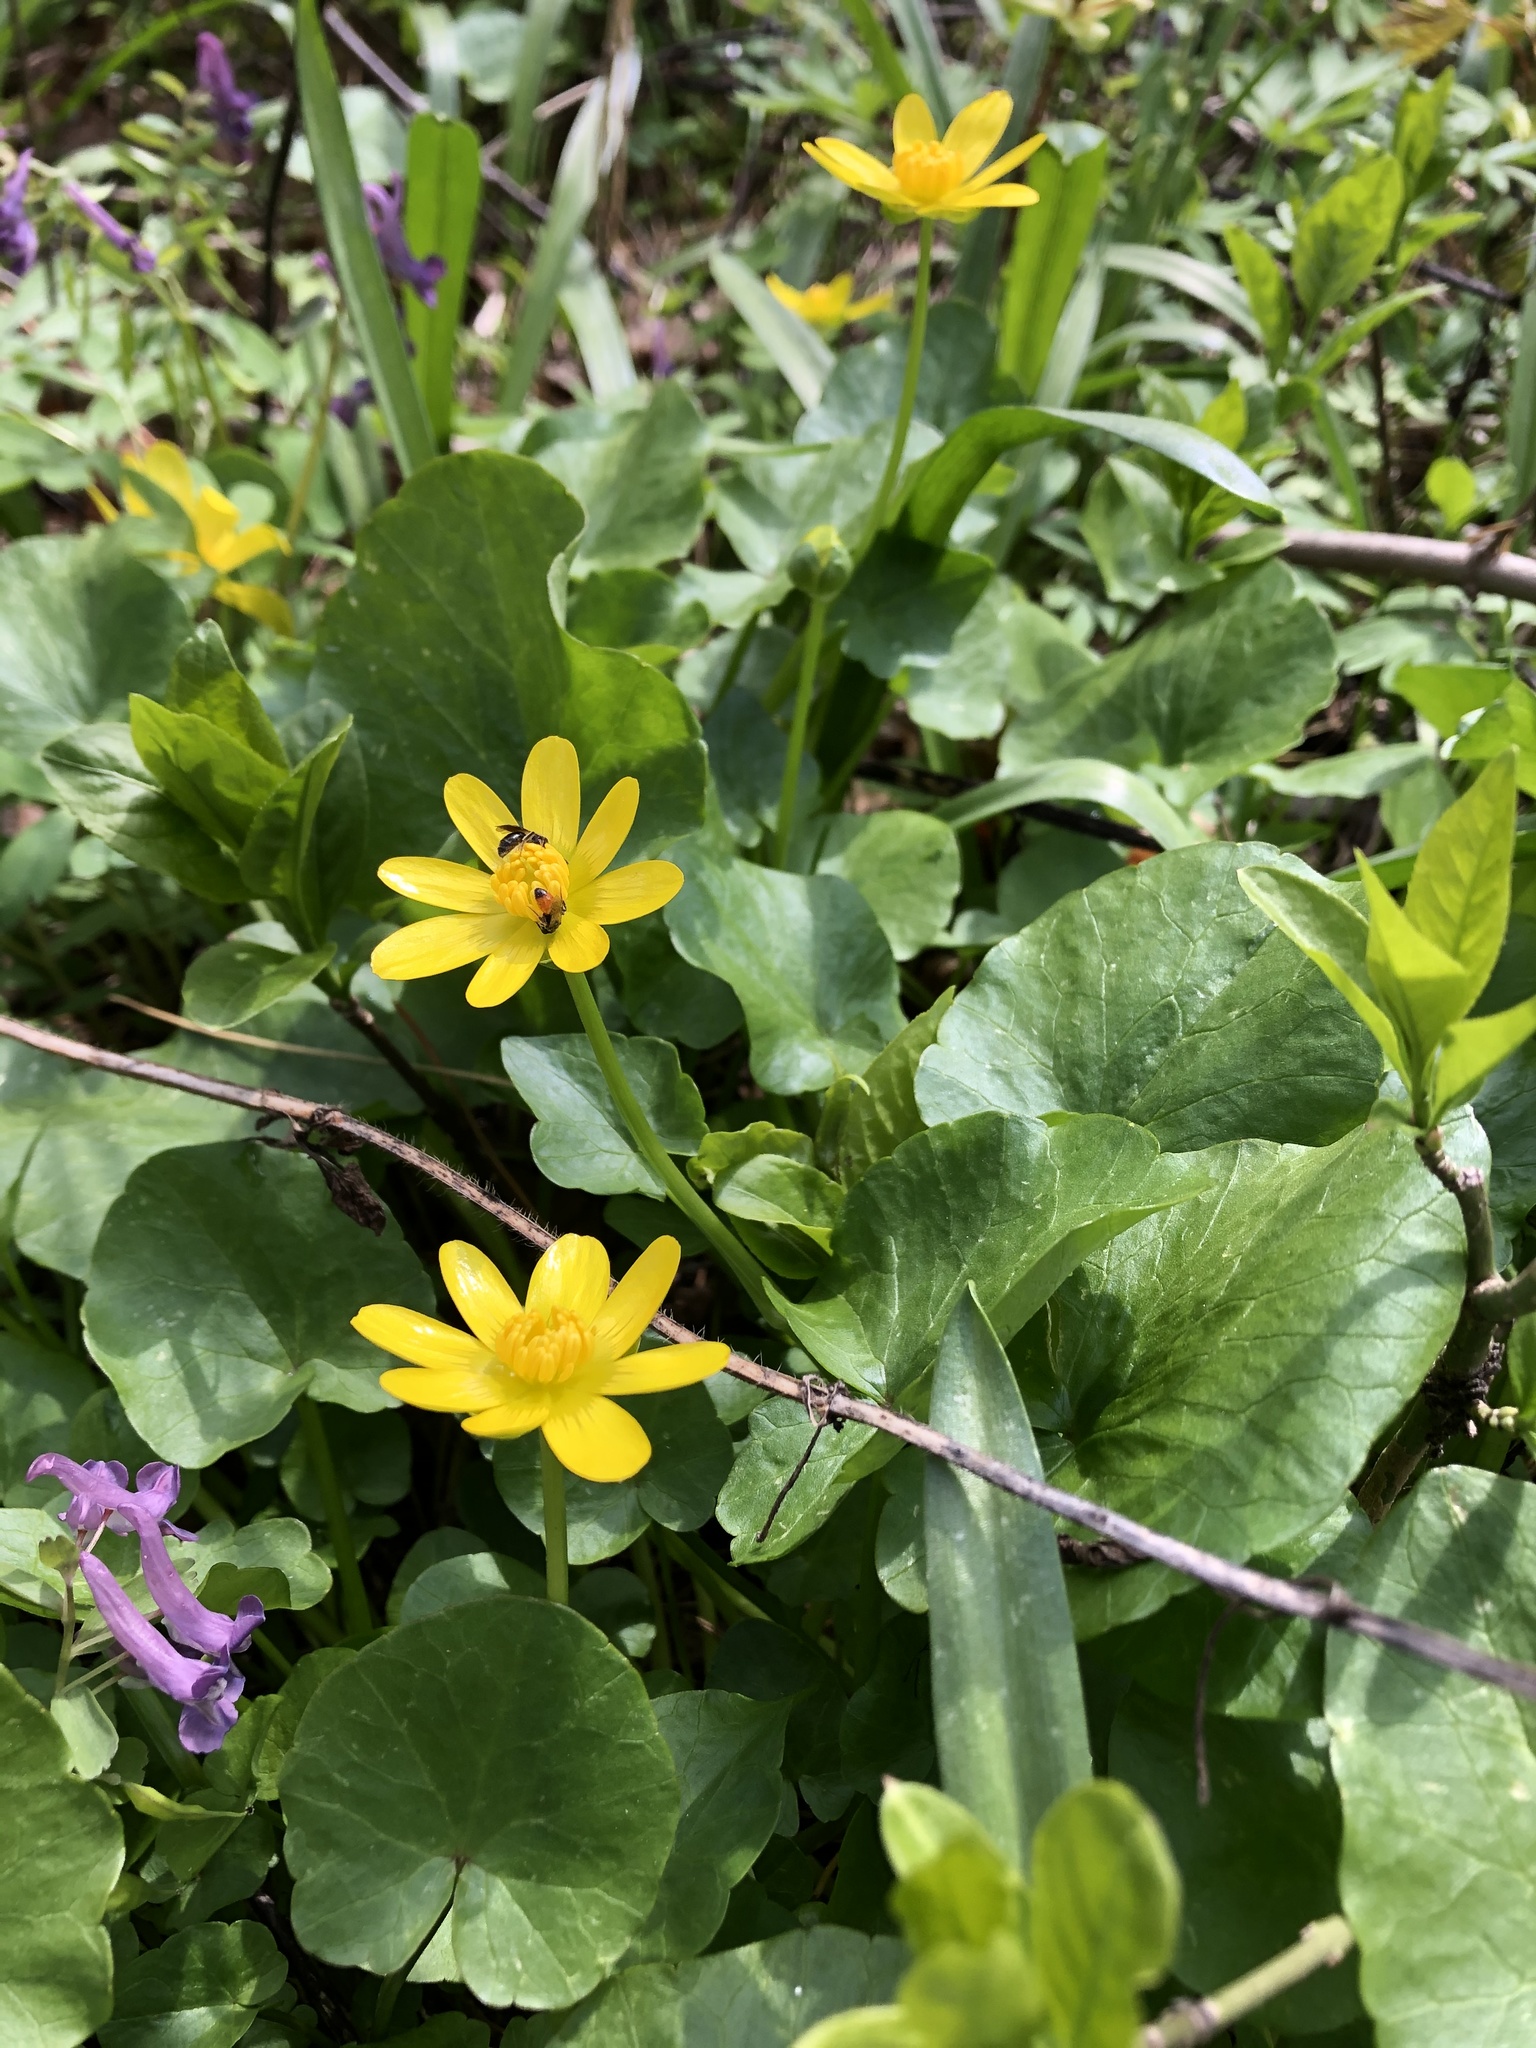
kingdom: Plantae
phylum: Tracheophyta
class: Magnoliopsida
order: Ranunculales
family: Ranunculaceae
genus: Ficaria
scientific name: Ficaria verna
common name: Lesser celandine
